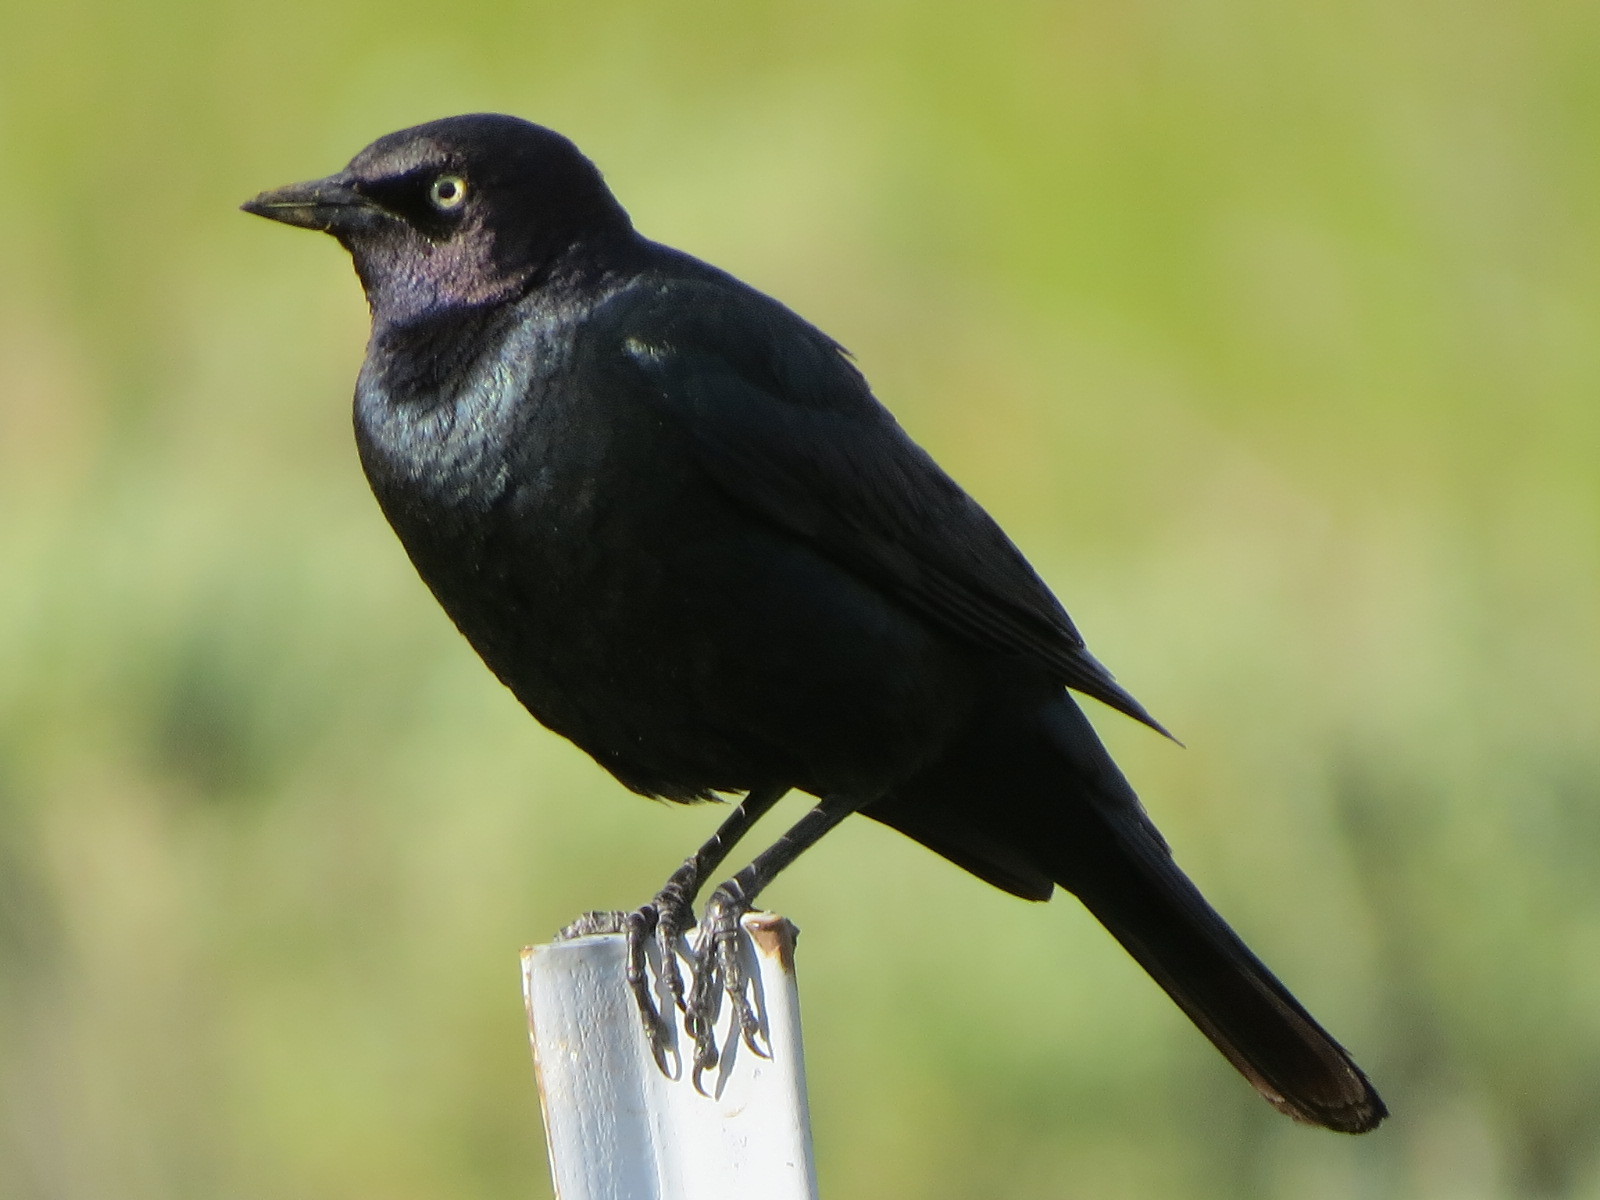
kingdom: Animalia
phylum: Chordata
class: Aves
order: Passeriformes
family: Icteridae
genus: Euphagus
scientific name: Euphagus cyanocephalus
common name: Brewer's blackbird
